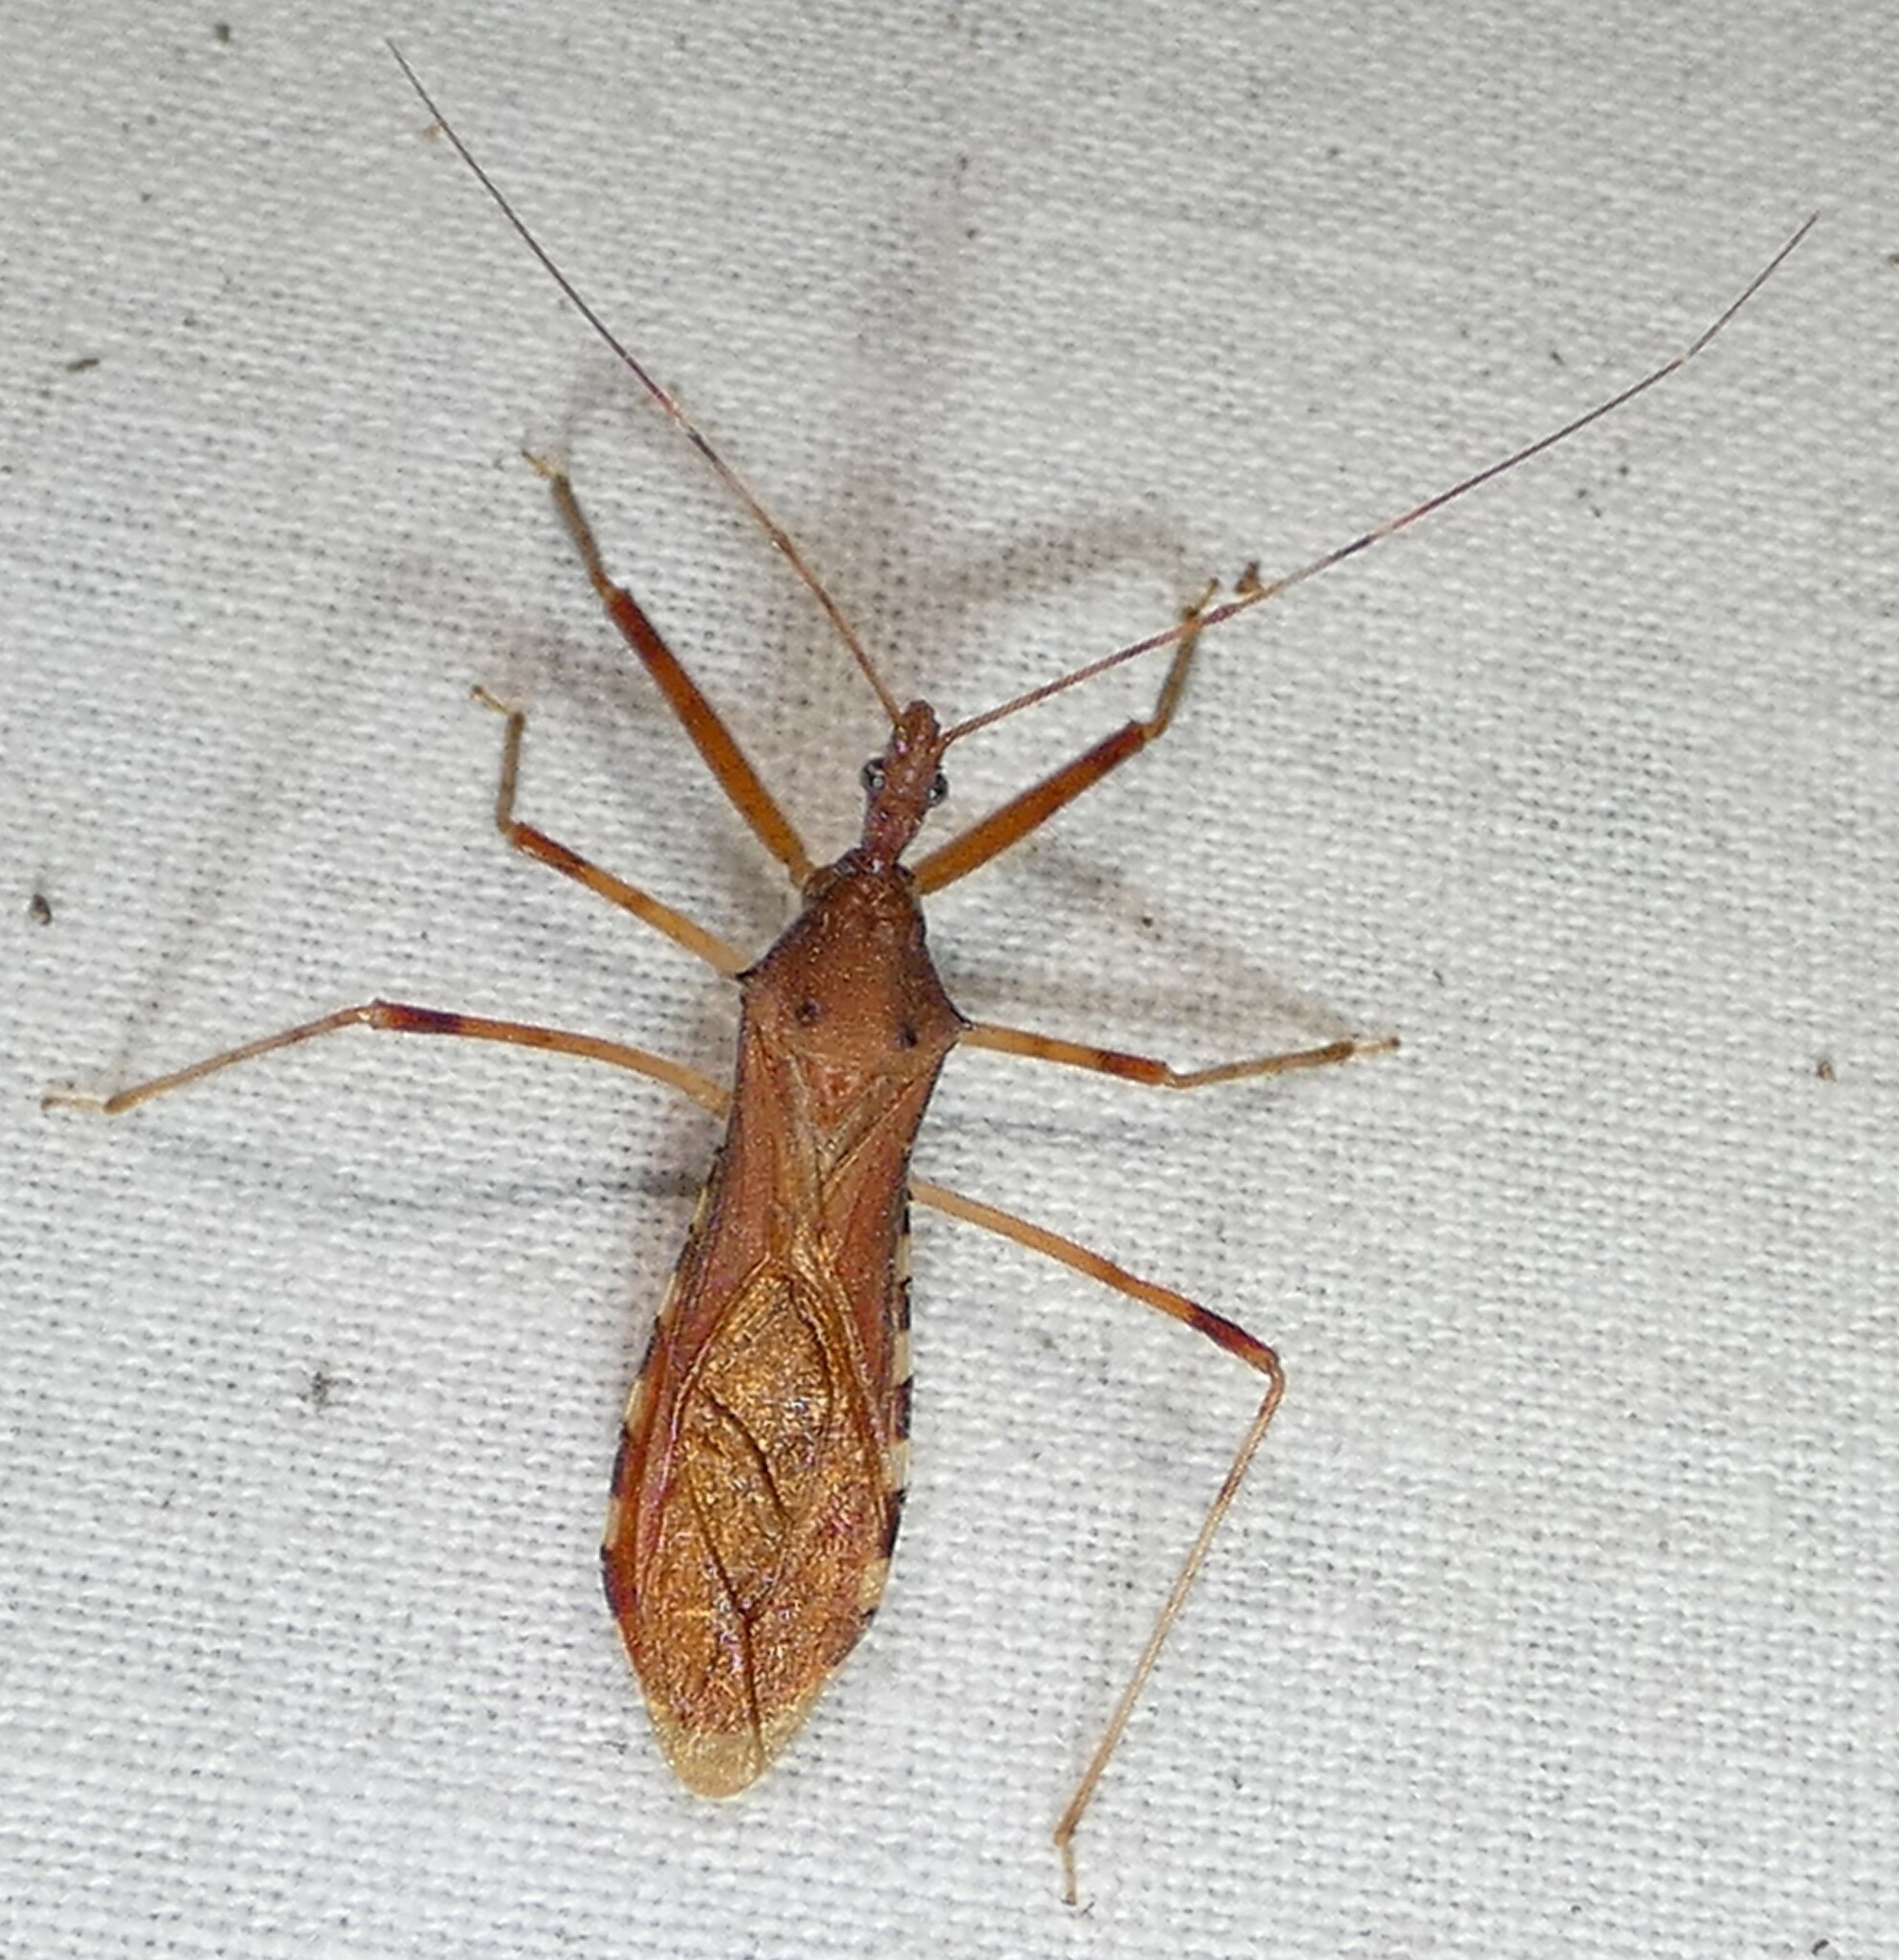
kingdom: Animalia
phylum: Arthropoda
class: Insecta
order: Hemiptera
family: Reduviidae
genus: Rocconota
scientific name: Rocconota annulicornis
